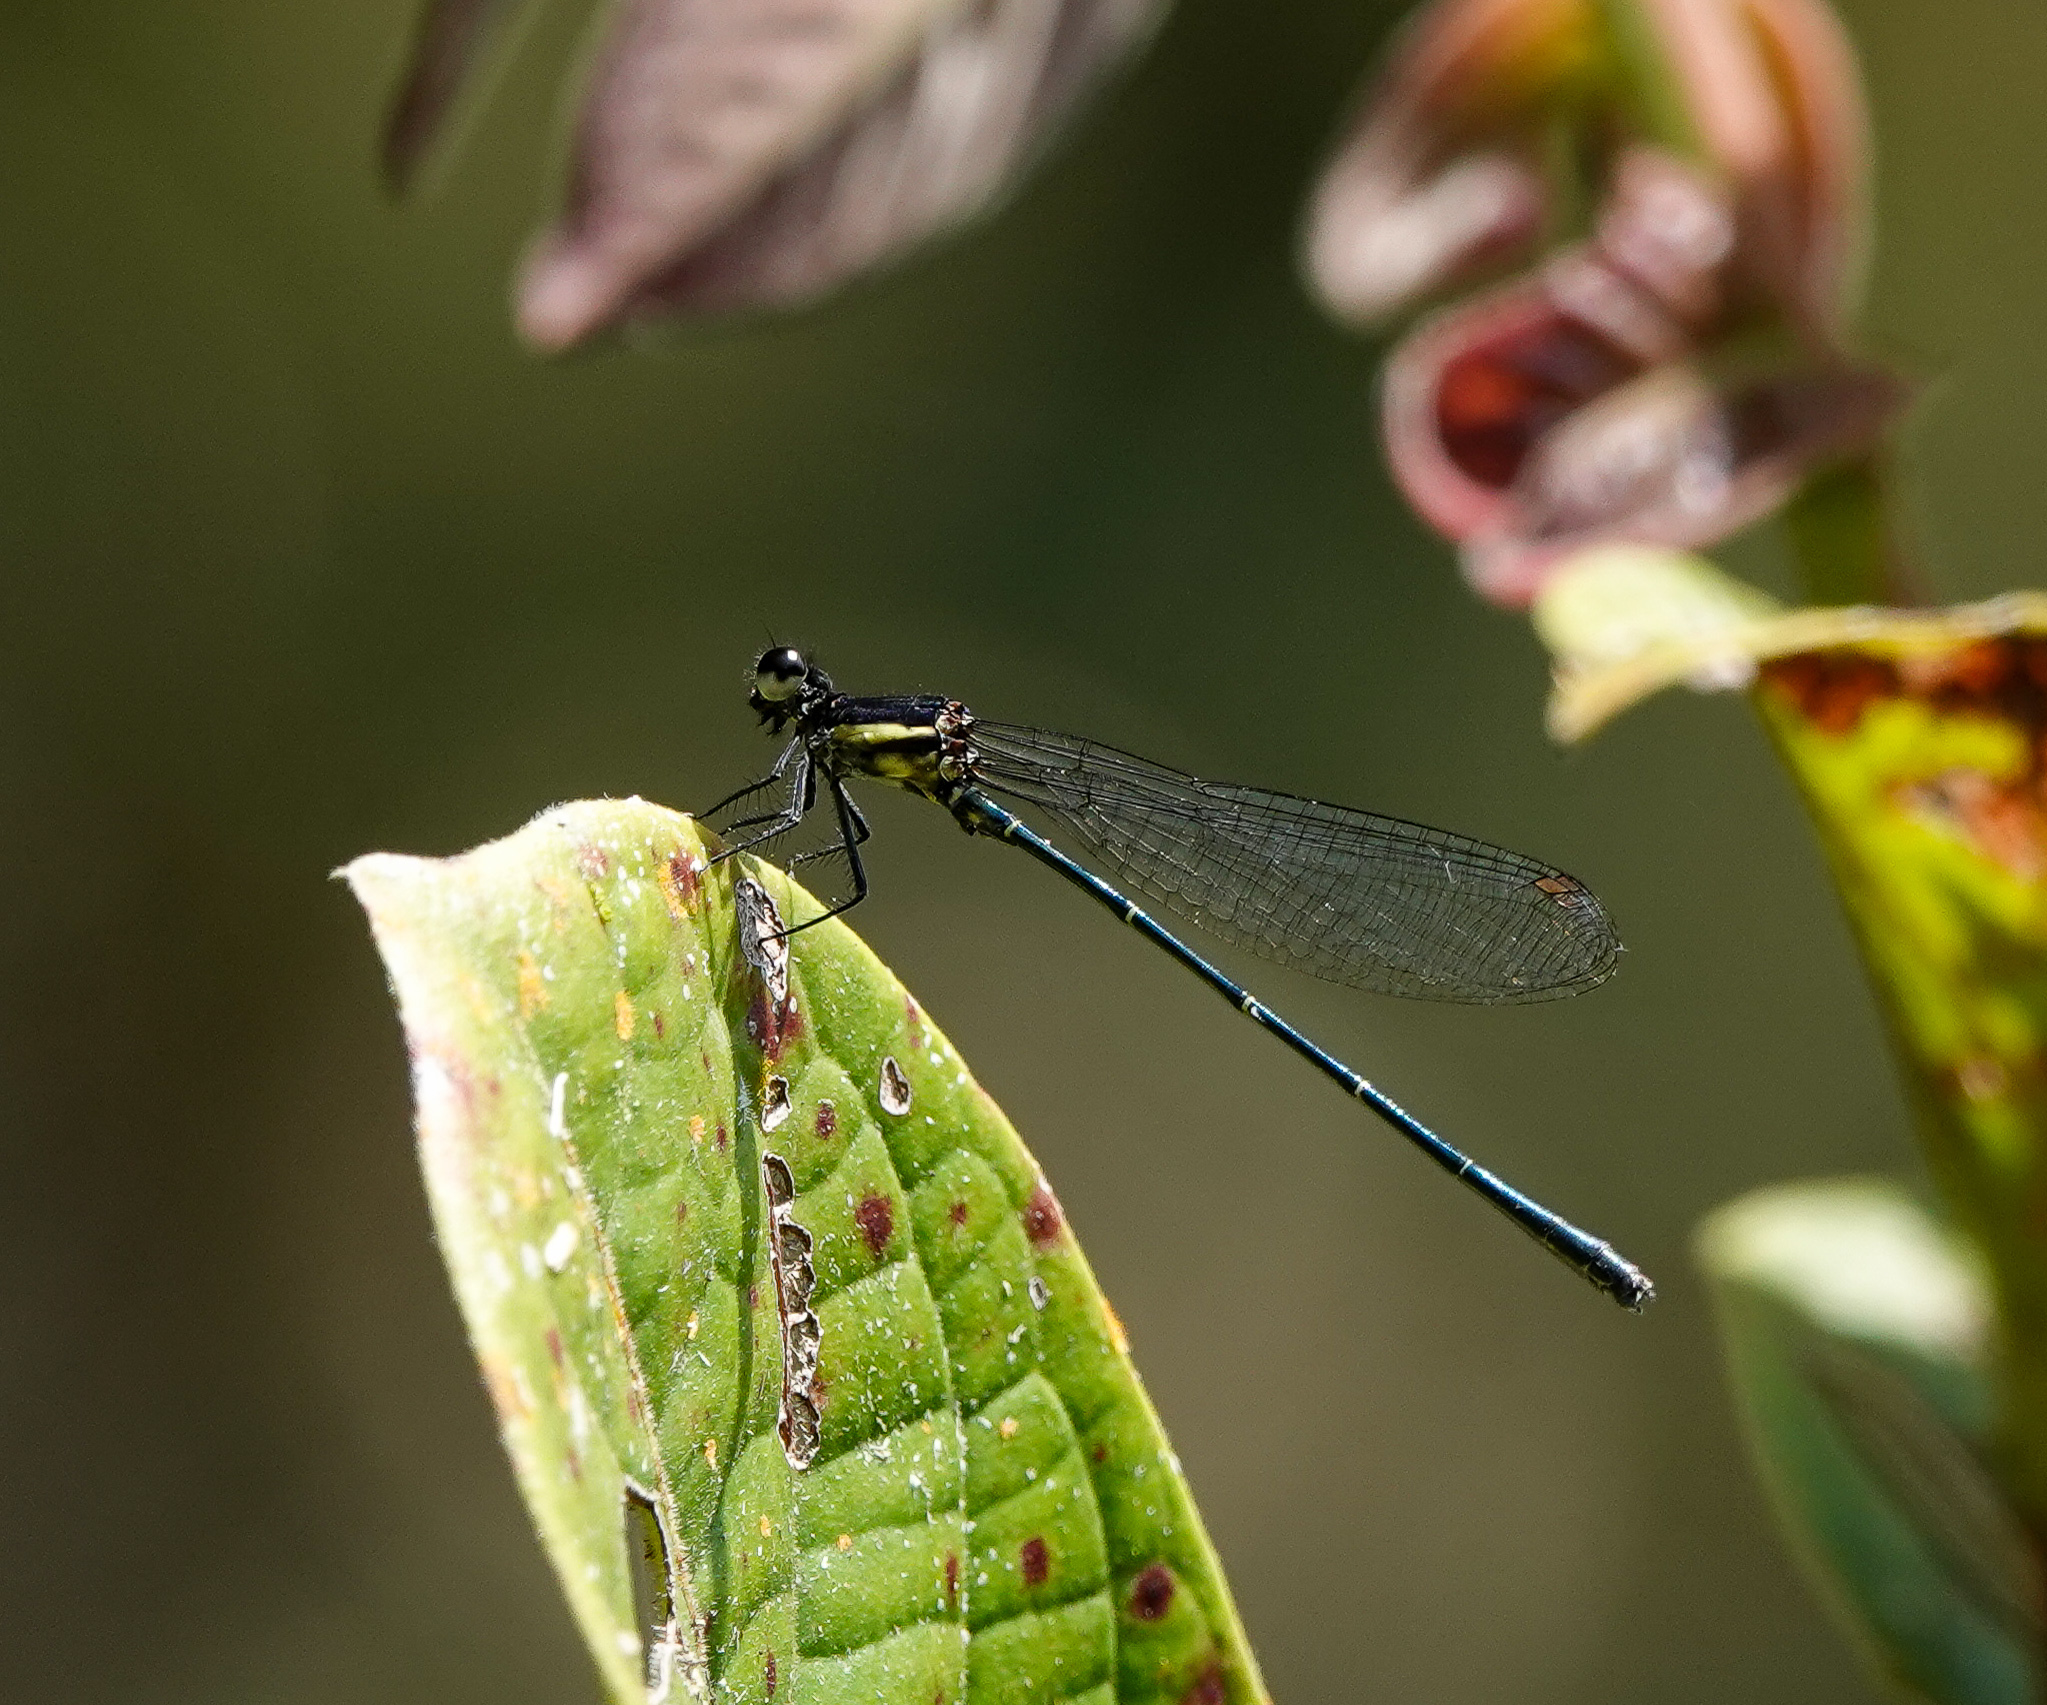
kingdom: Animalia
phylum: Arthropoda
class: Insecta
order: Odonata
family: Platycnemididae
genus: Onychargia
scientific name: Onychargia atrocyana
